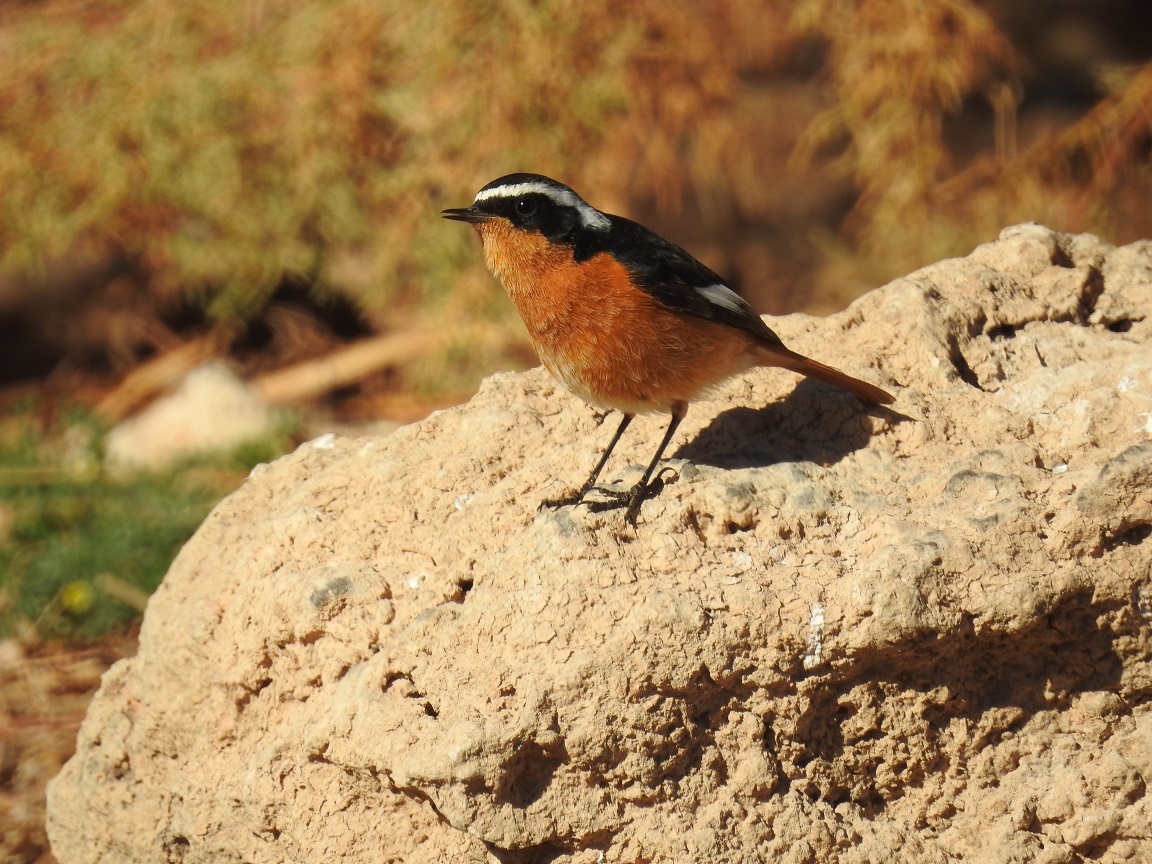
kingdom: Animalia
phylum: Chordata
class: Aves
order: Passeriformes
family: Muscicapidae
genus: Phoenicurus
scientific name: Phoenicurus moussieri
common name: Moussier's redstart
